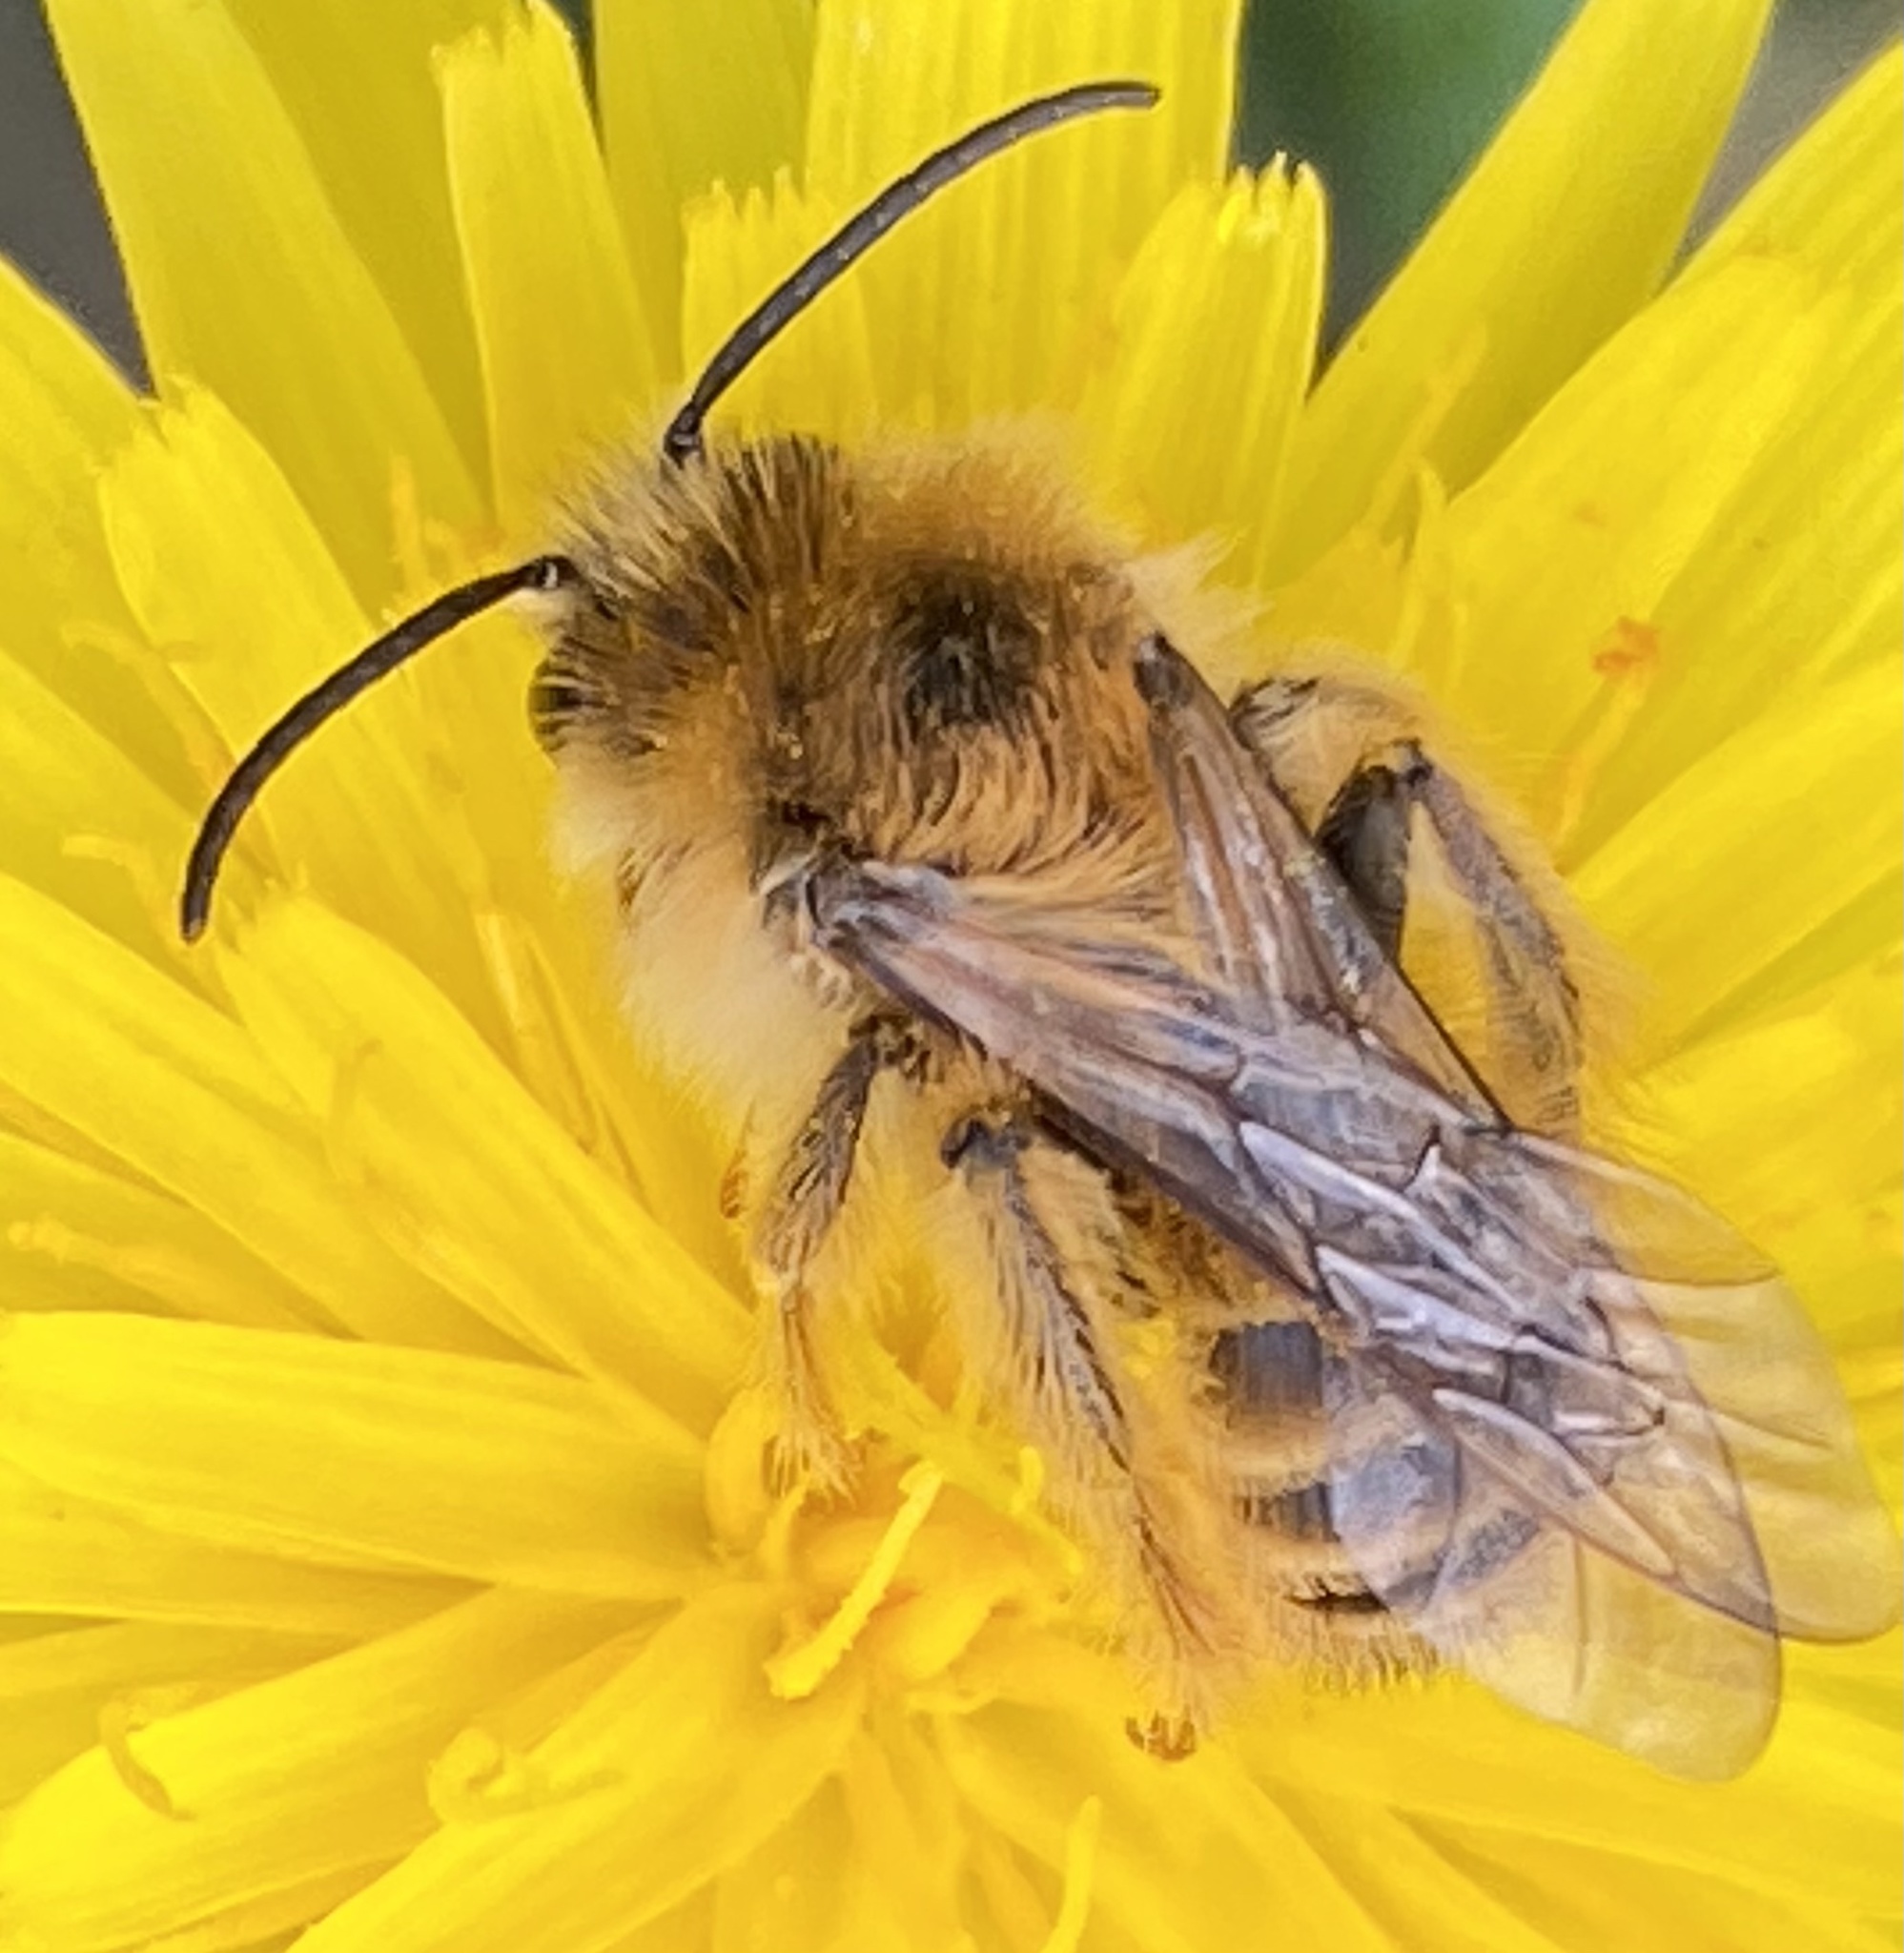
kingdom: Animalia
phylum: Arthropoda
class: Insecta
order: Hymenoptera
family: Melittidae
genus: Dasypoda
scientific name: Dasypoda hirtipes
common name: Pantaloon bee
